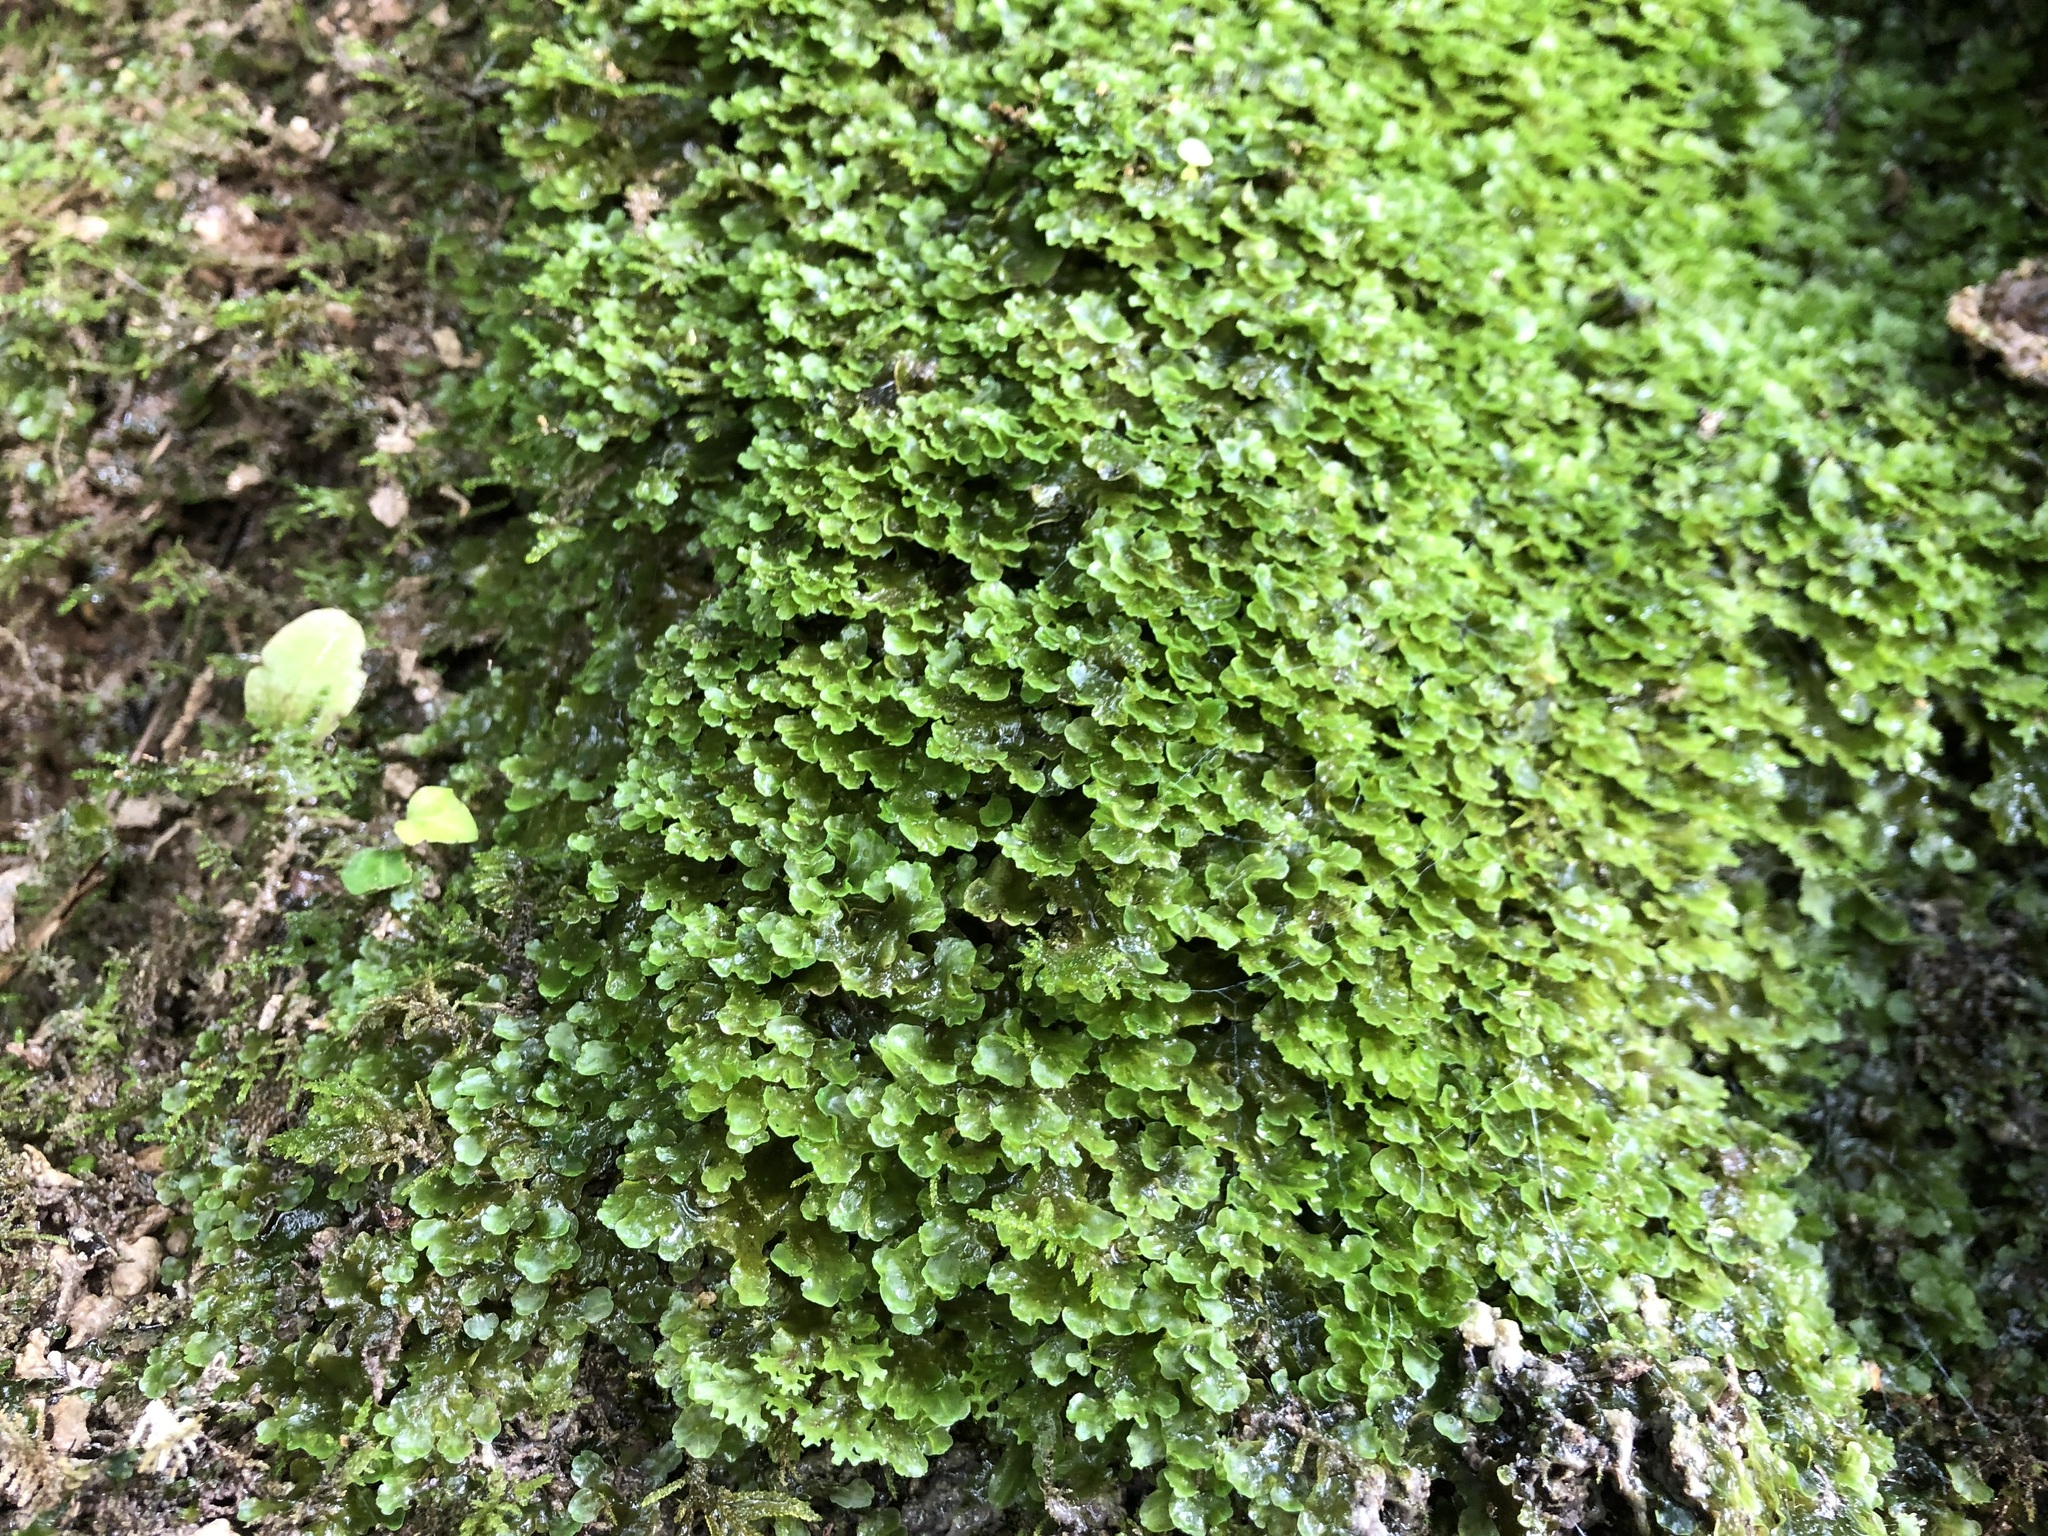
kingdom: Plantae
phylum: Marchantiophyta
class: Jungermanniopsida
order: Pelliales
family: Pelliaceae
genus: Apopellia
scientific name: Apopellia endiviifolia
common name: Endive pellia
